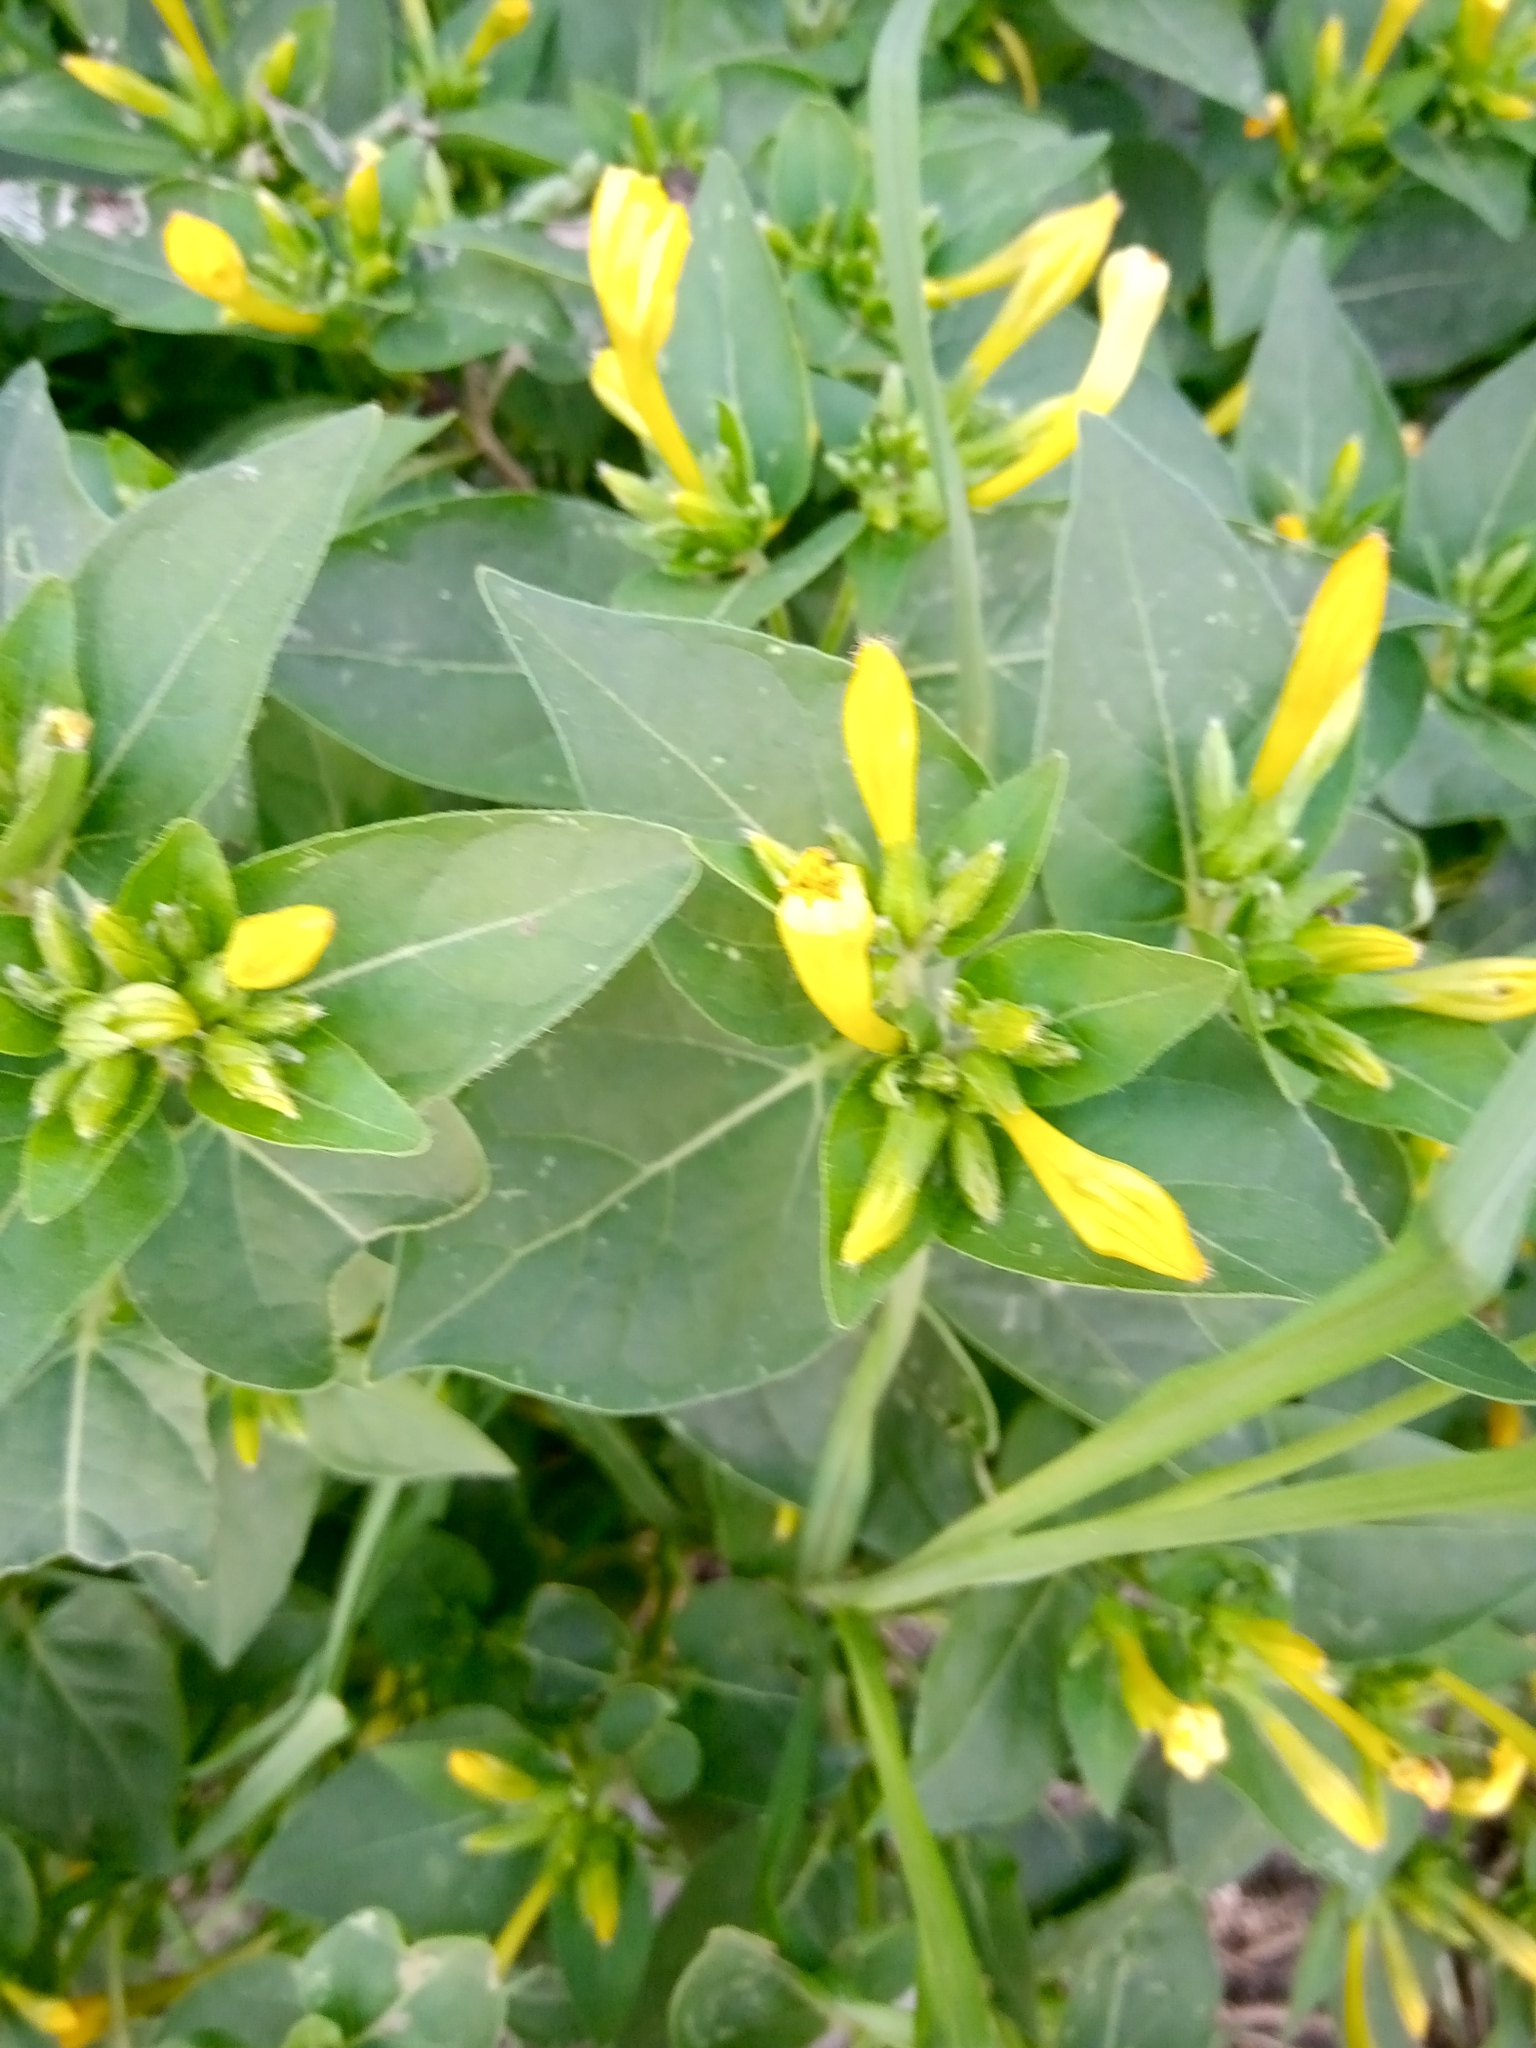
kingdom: Plantae
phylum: Tracheophyta
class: Magnoliopsida
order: Caryophyllales
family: Nyctaginaceae
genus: Mirabilis
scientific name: Mirabilis jalapa
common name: Marvel-of-peru
